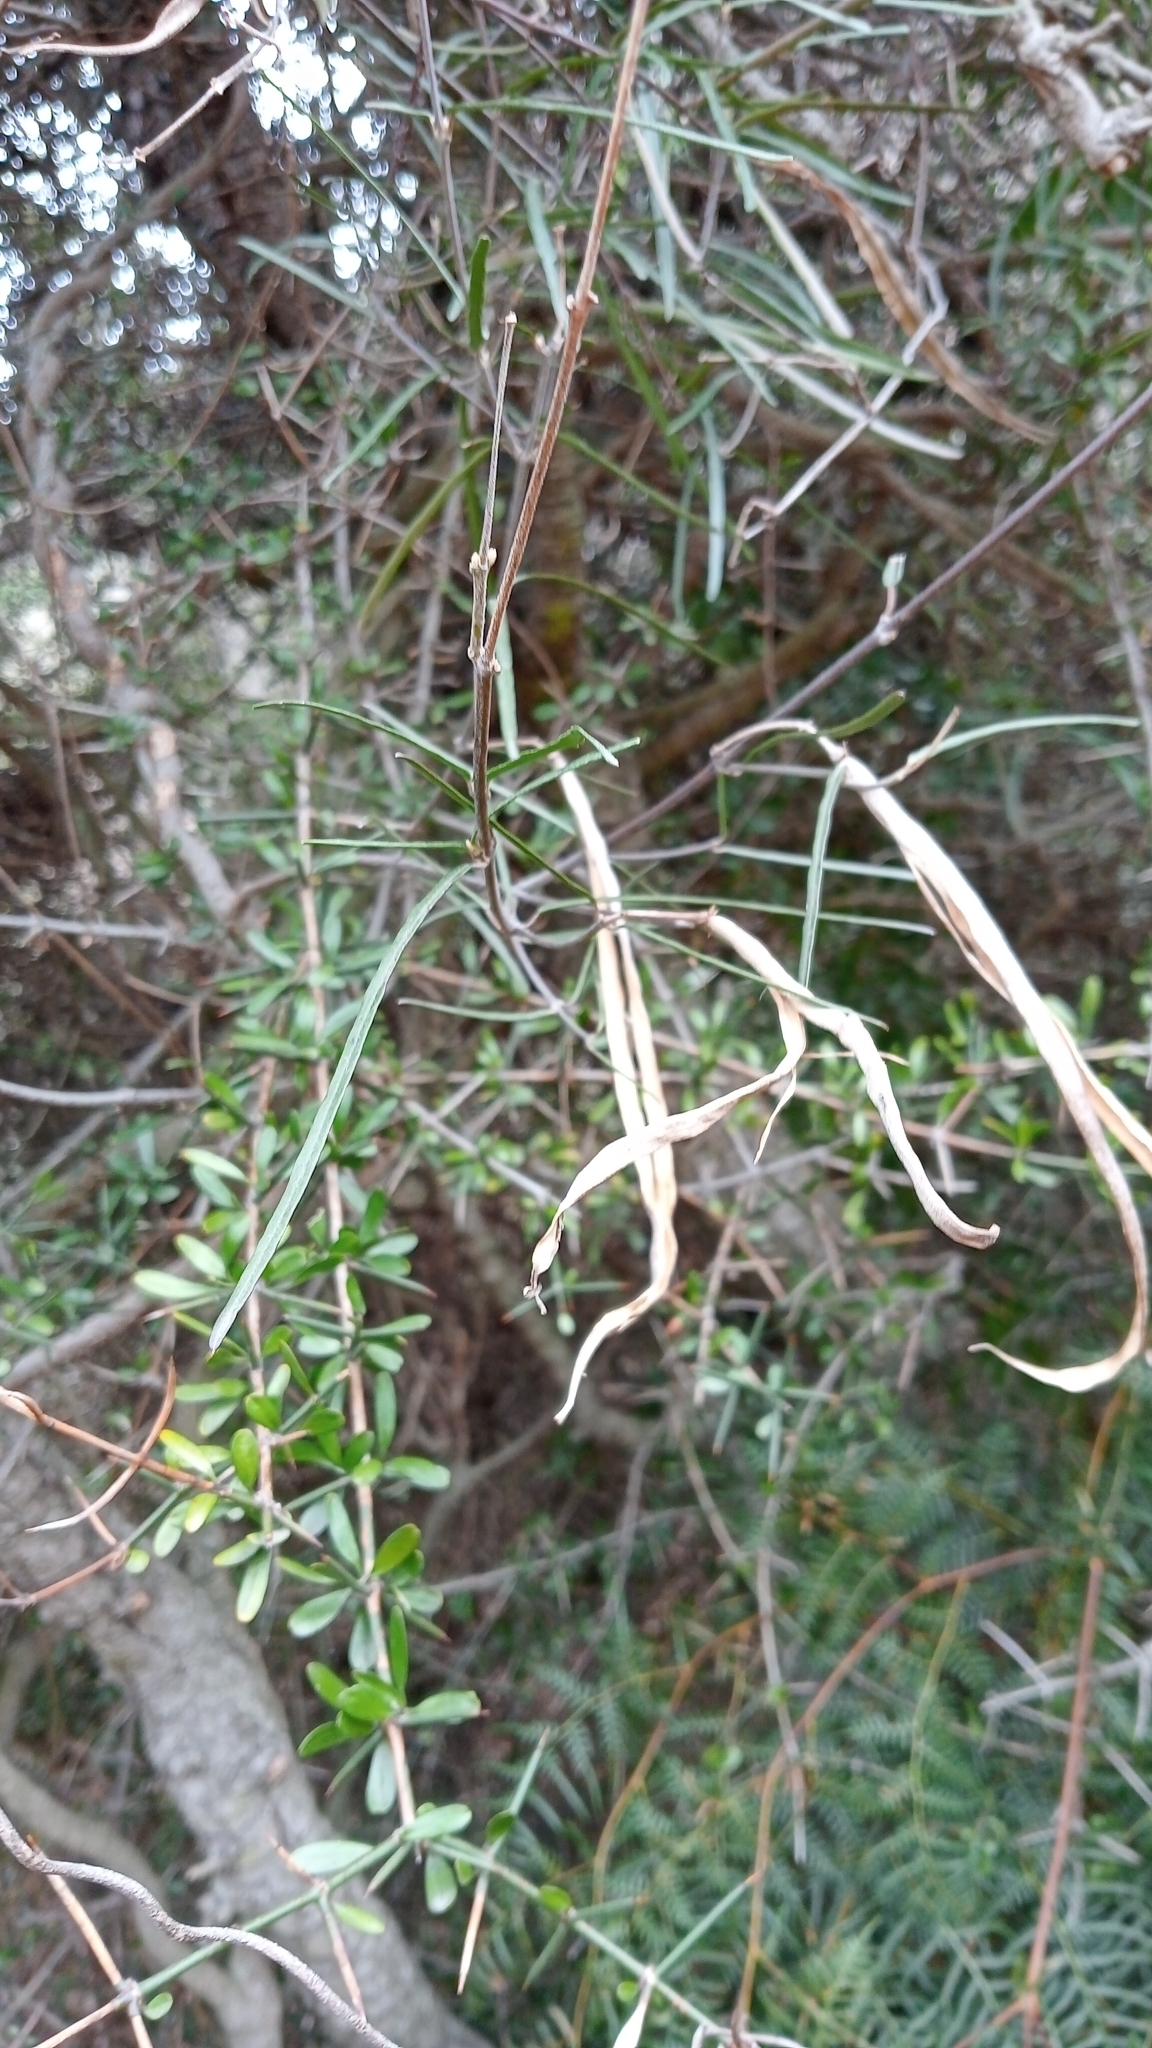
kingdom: Plantae
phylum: Tracheophyta
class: Magnoliopsida
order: Gentianales
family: Apocynaceae
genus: Parsonsia
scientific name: Parsonsia capsularis
